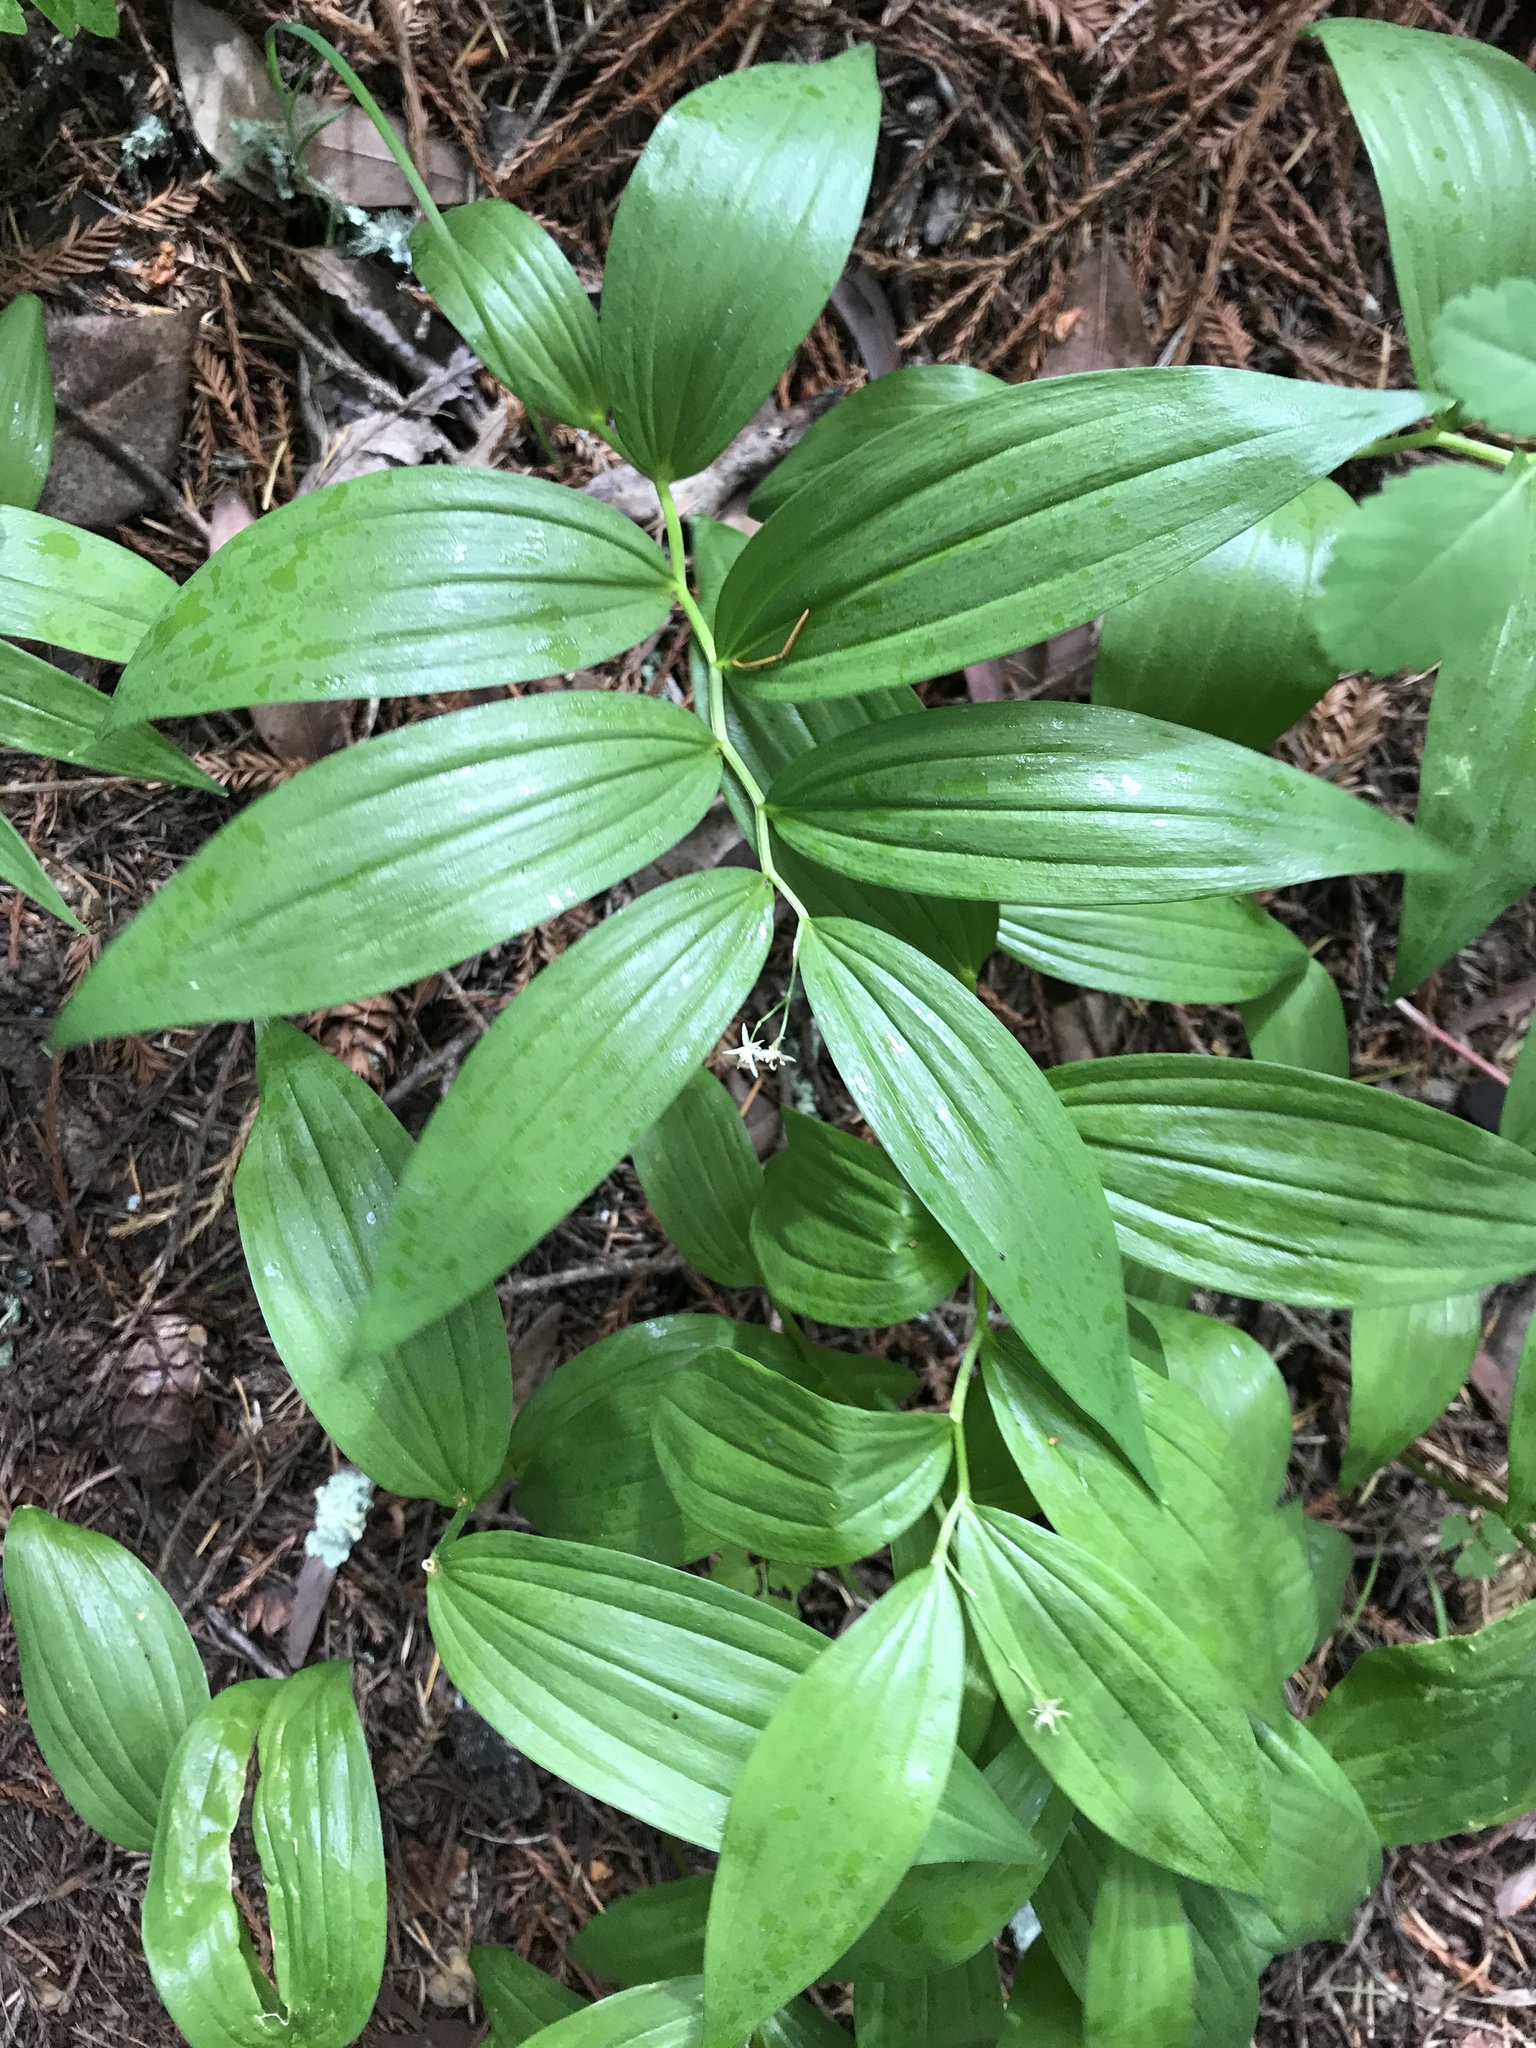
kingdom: Plantae
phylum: Tracheophyta
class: Liliopsida
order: Asparagales
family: Asparagaceae
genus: Maianthemum
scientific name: Maianthemum stellatum
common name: Little false solomon's seal
